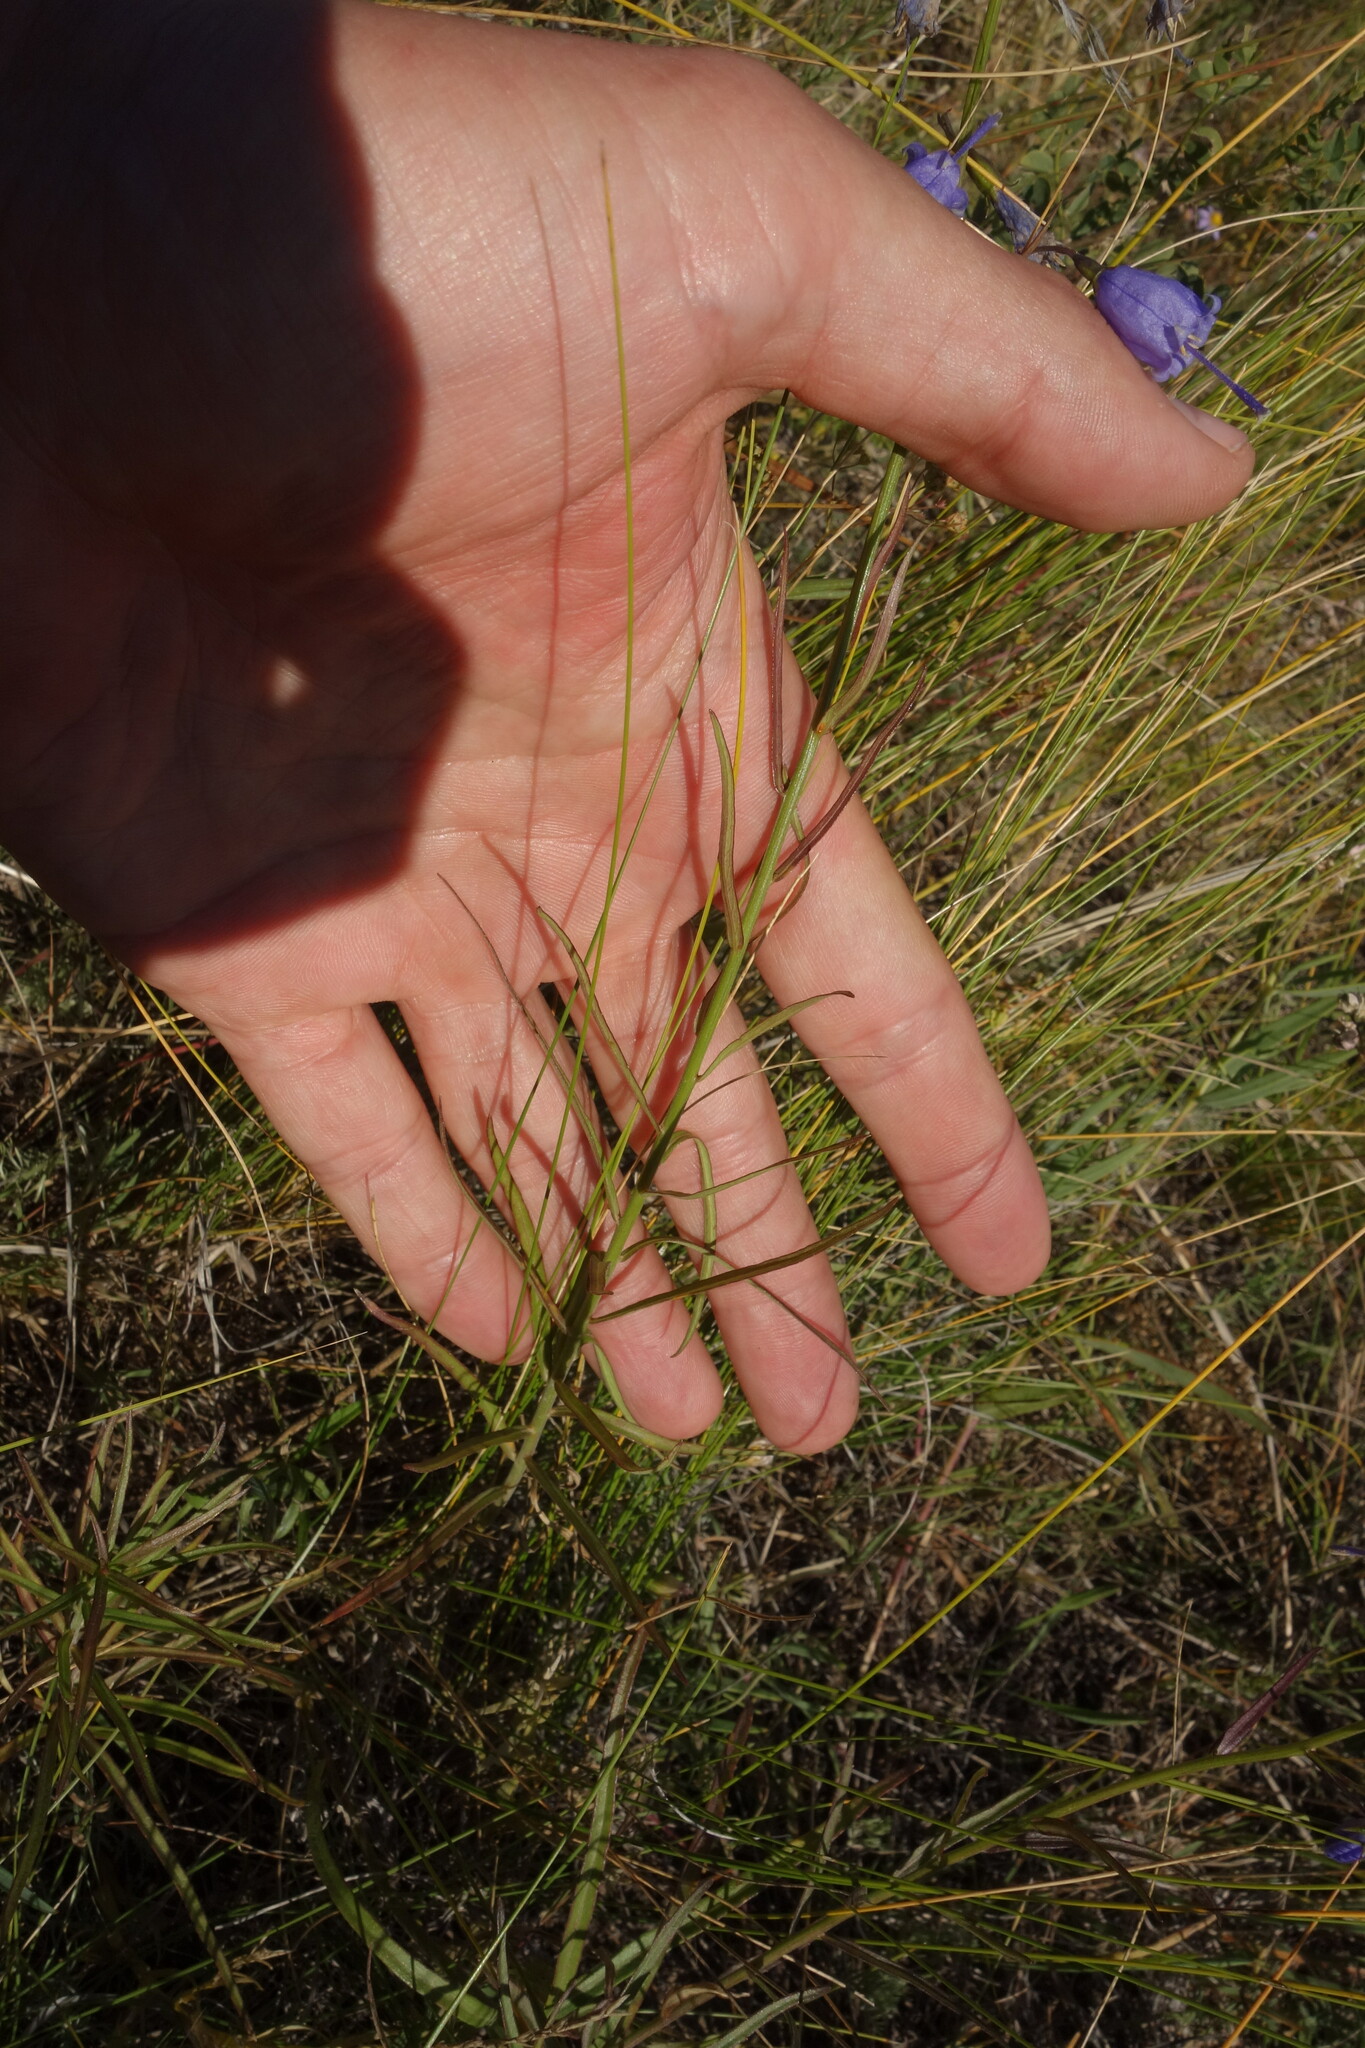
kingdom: Plantae
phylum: Tracheophyta
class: Magnoliopsida
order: Asterales
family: Campanulaceae
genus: Adenophora
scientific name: Adenophora stenanthina
